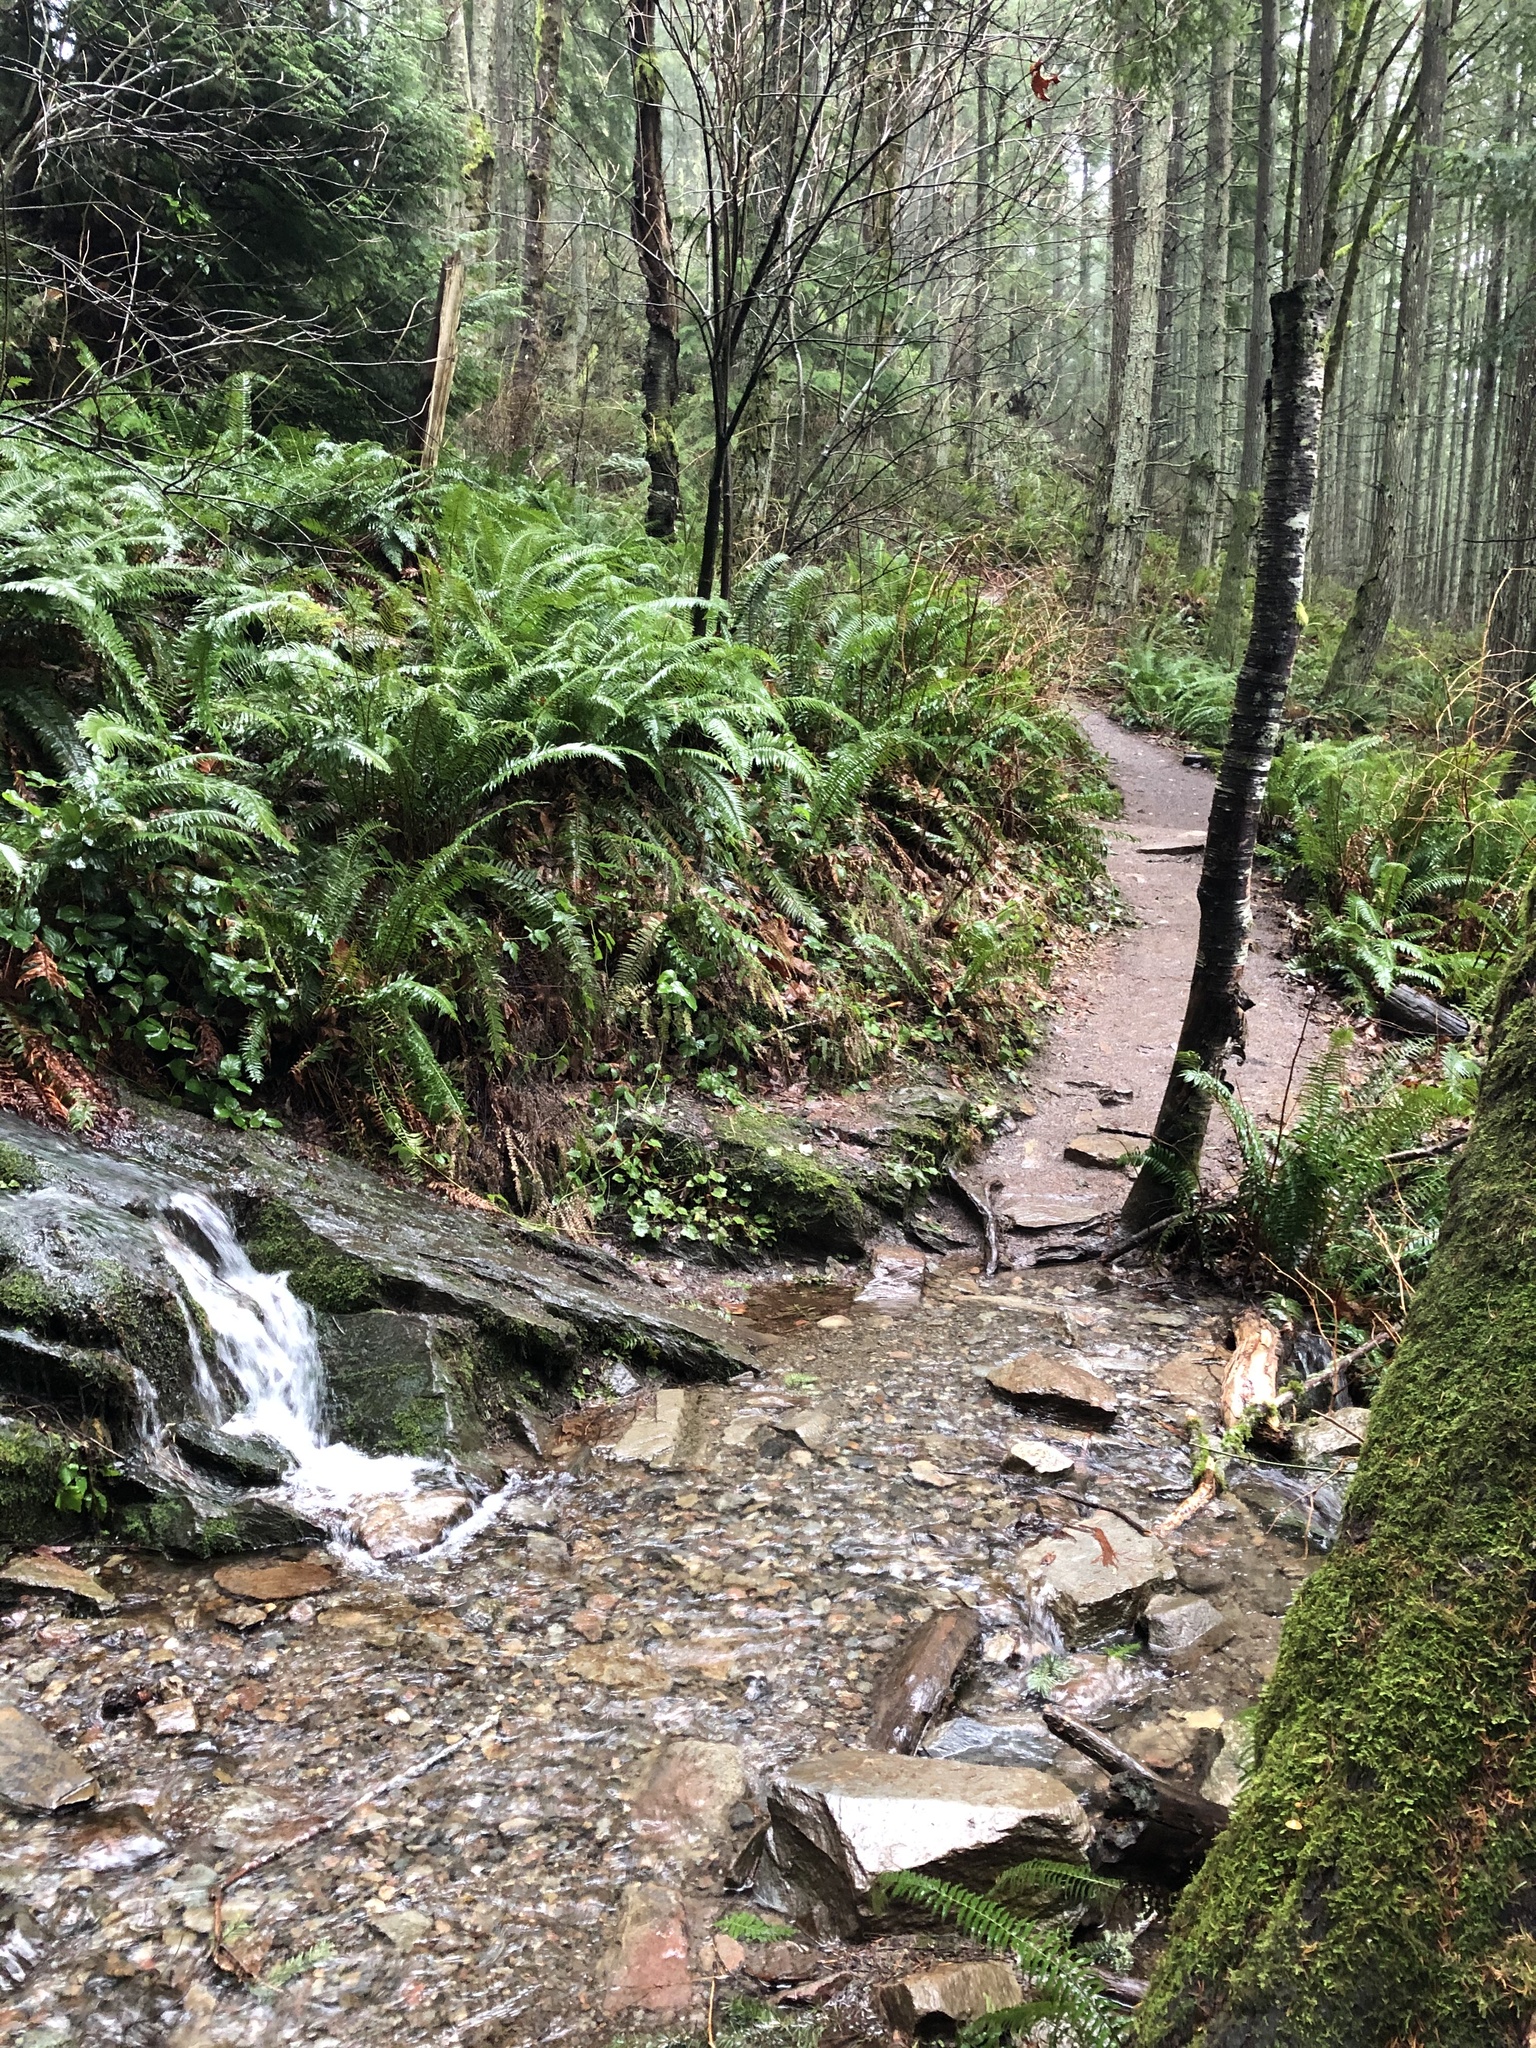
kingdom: Plantae
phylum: Tracheophyta
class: Polypodiopsida
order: Polypodiales
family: Dryopteridaceae
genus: Polystichum
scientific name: Polystichum munitum
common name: Western sword-fern
